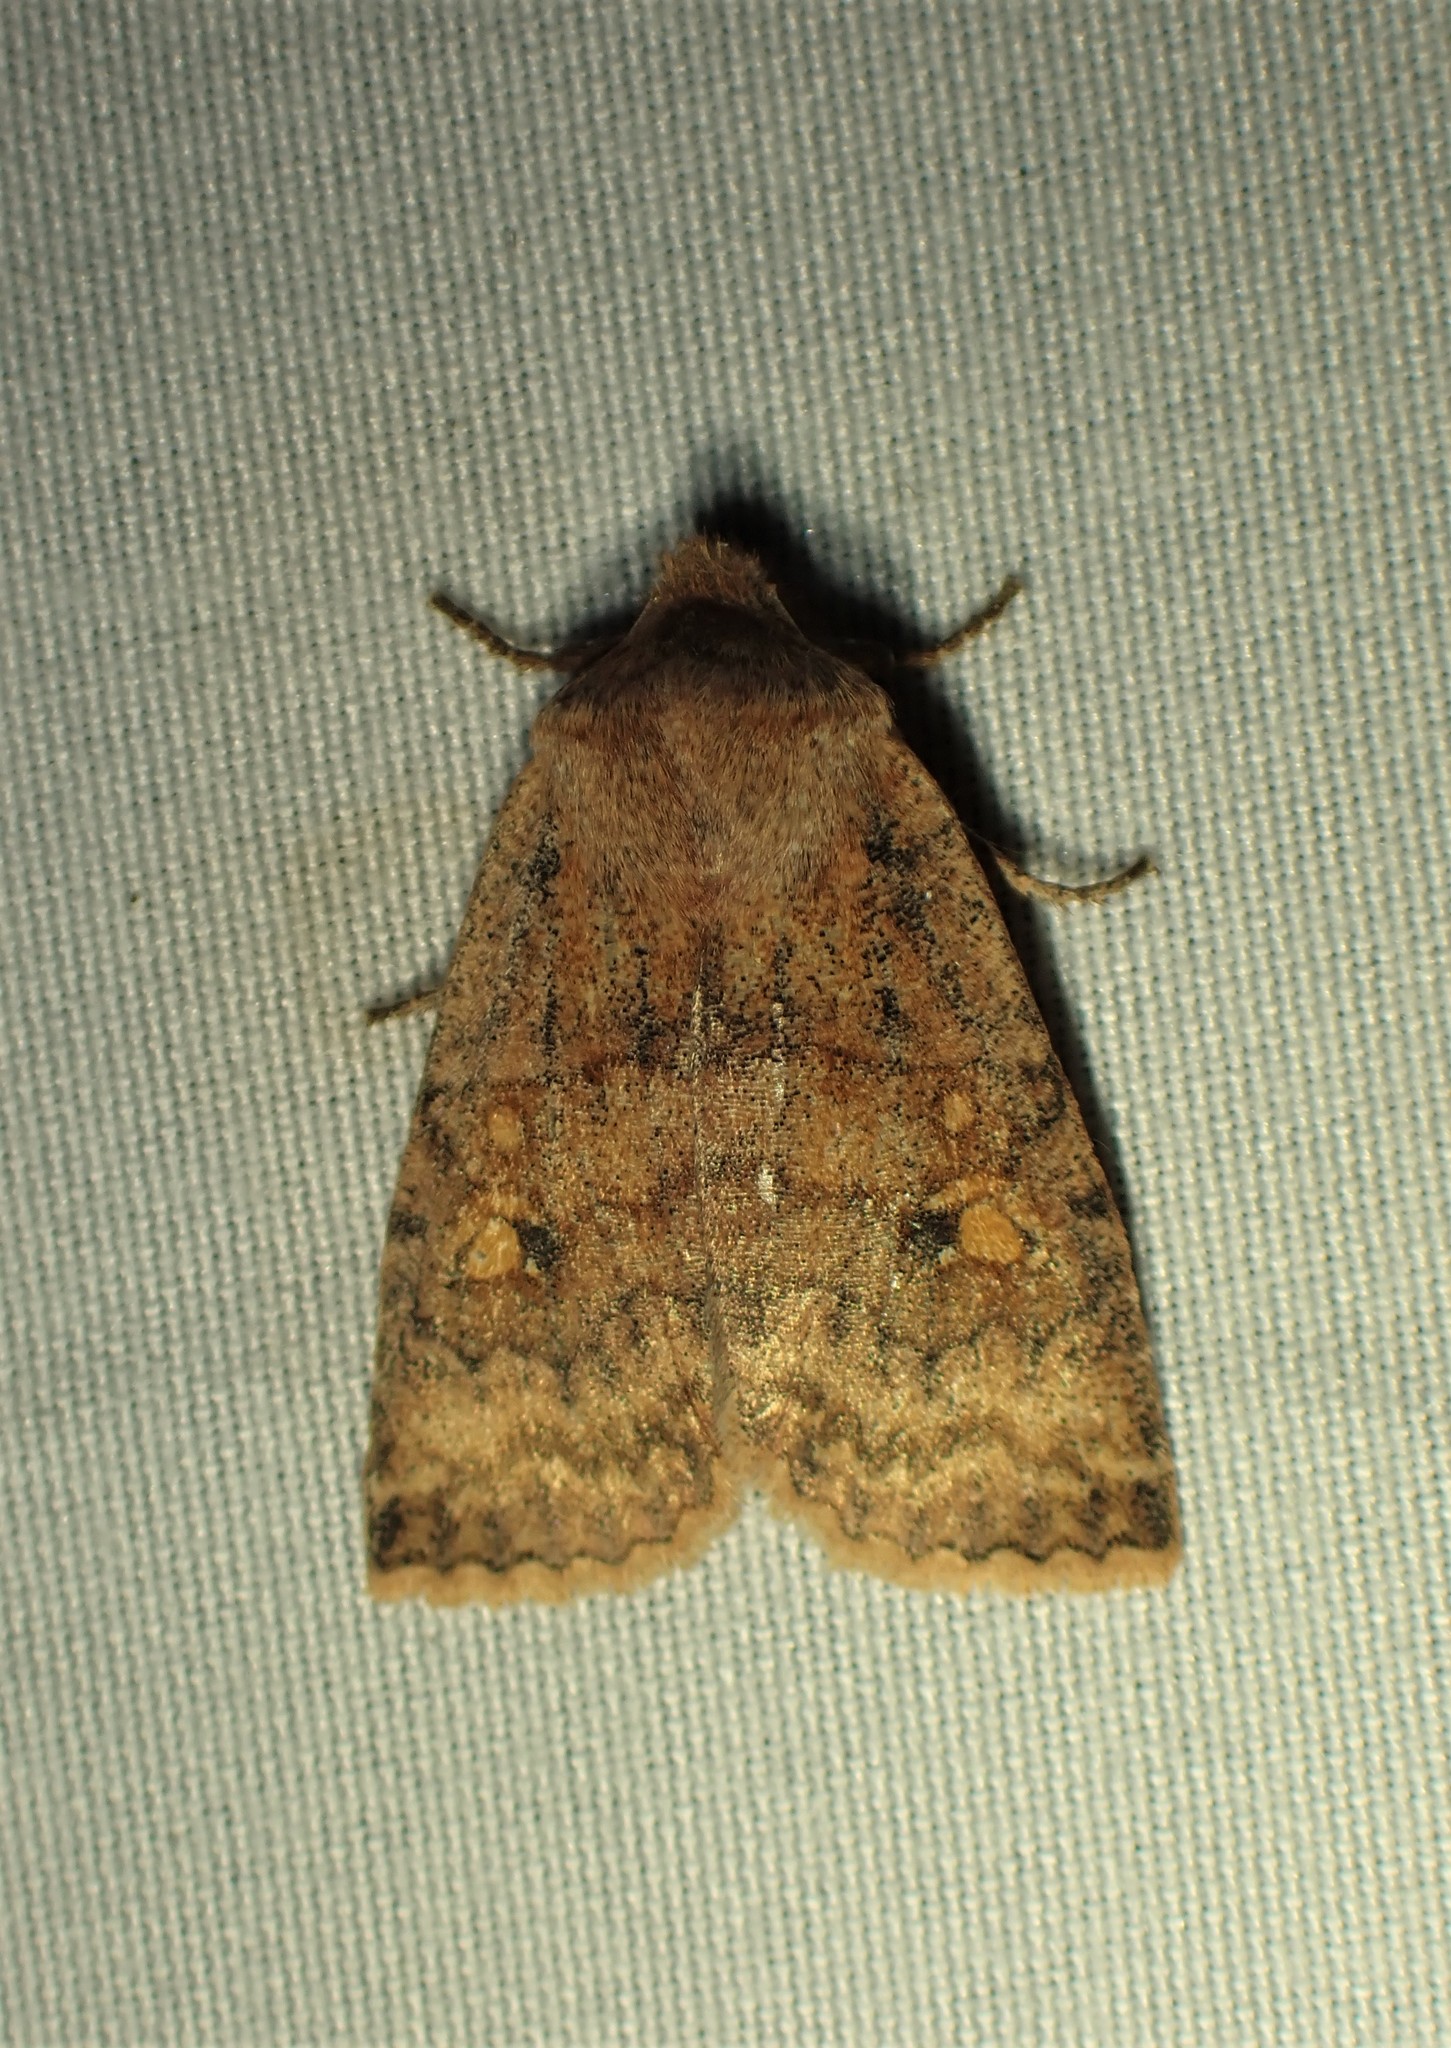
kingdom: Animalia
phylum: Arthropoda
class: Insecta
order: Lepidoptera
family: Noctuidae
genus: Eupsilia
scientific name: Eupsilia tristigmata
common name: Three-spotted sallow
